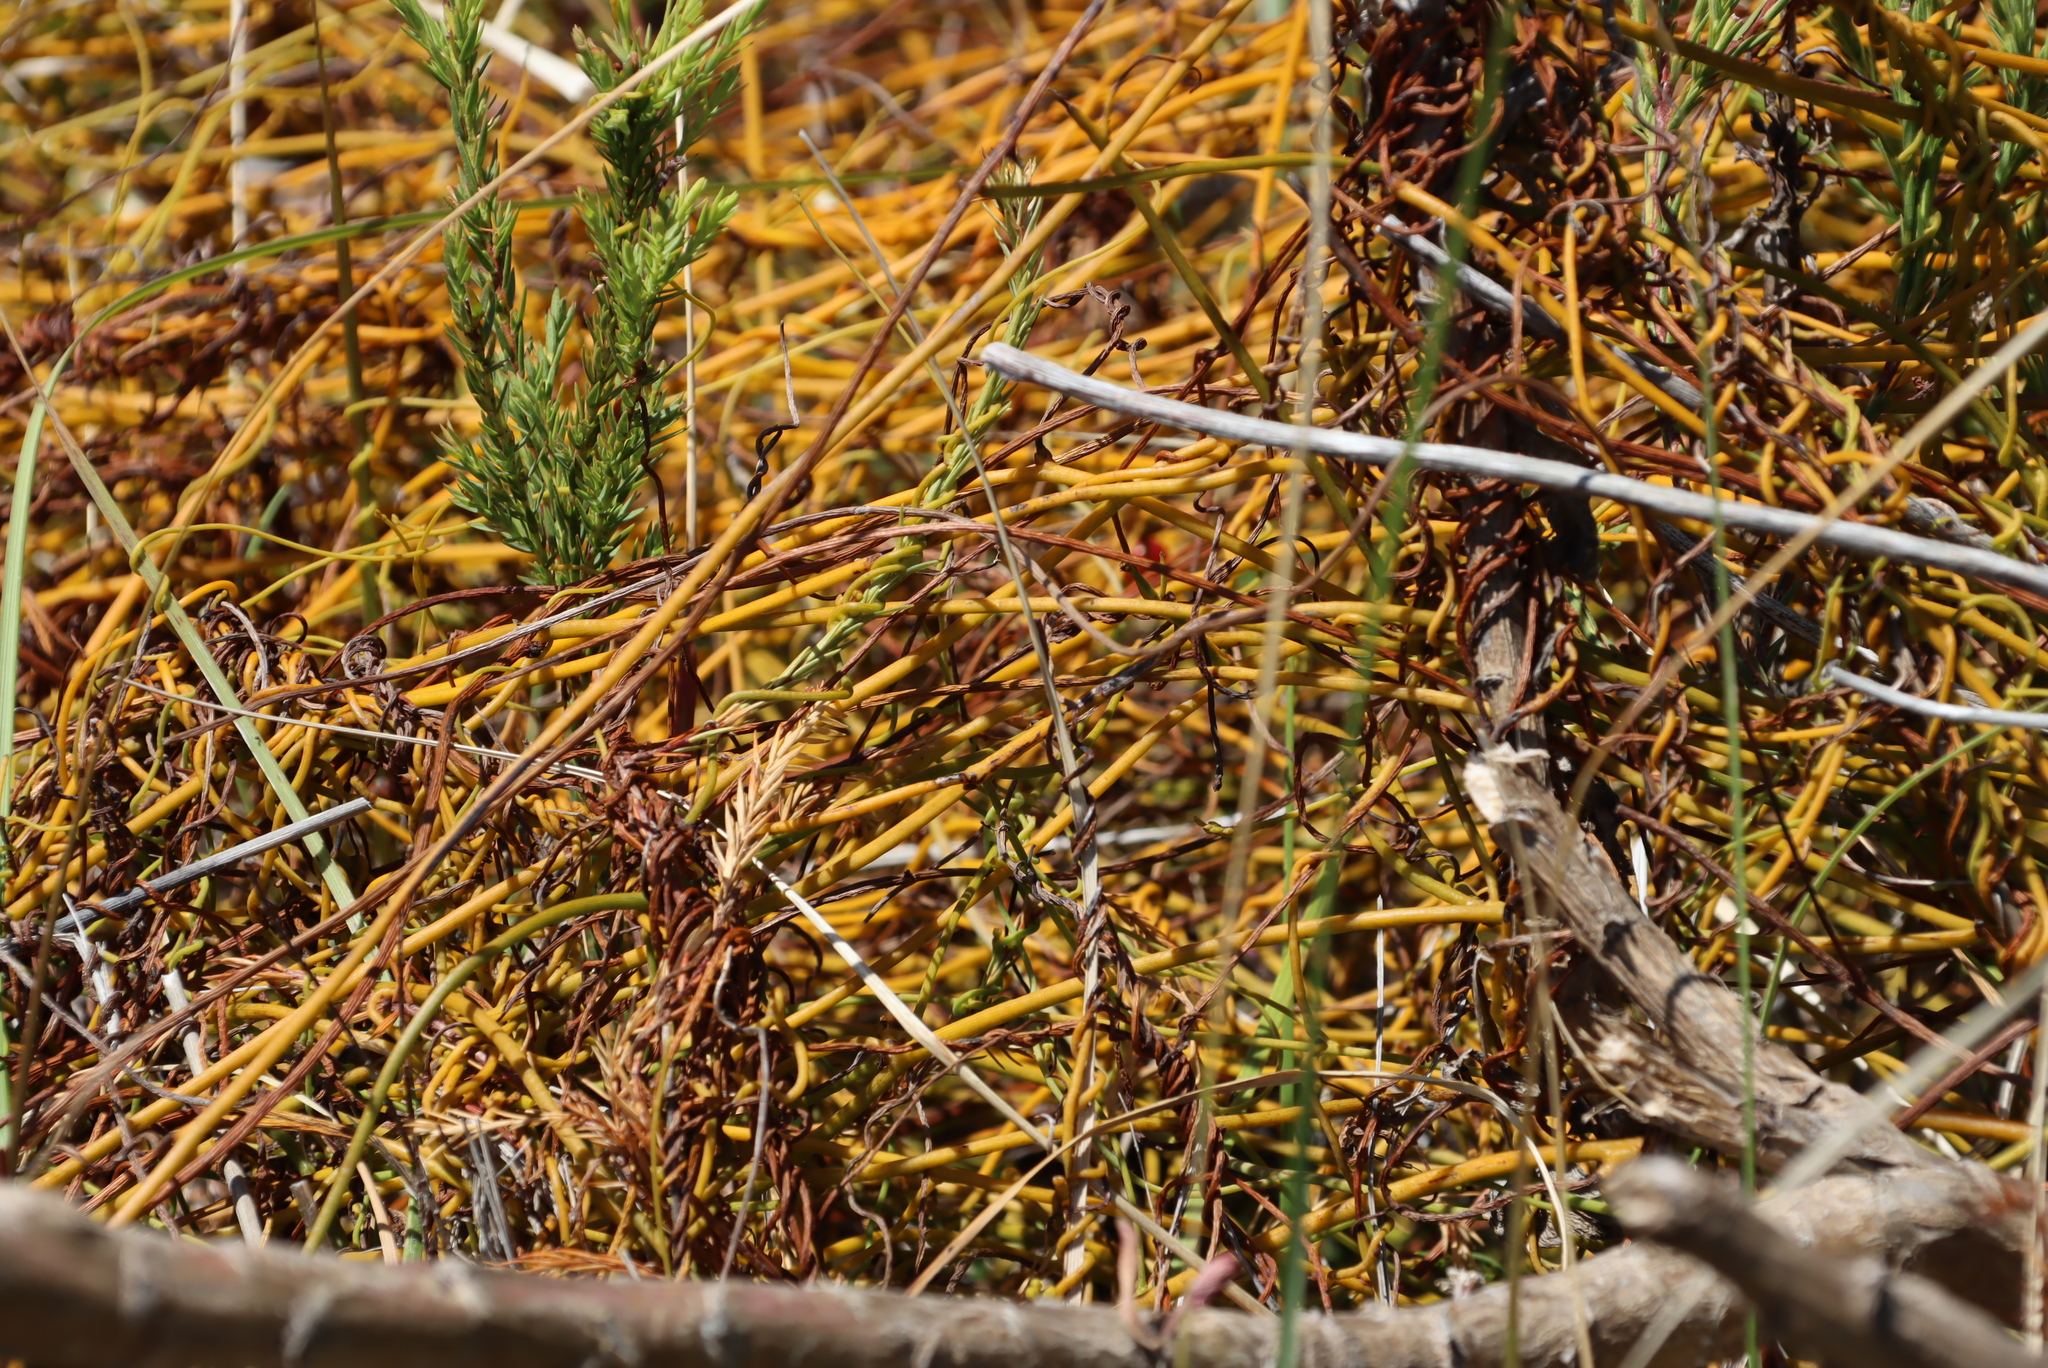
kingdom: Plantae
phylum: Tracheophyta
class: Magnoliopsida
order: Laurales
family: Lauraceae
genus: Cassytha
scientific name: Cassytha ciliolata
